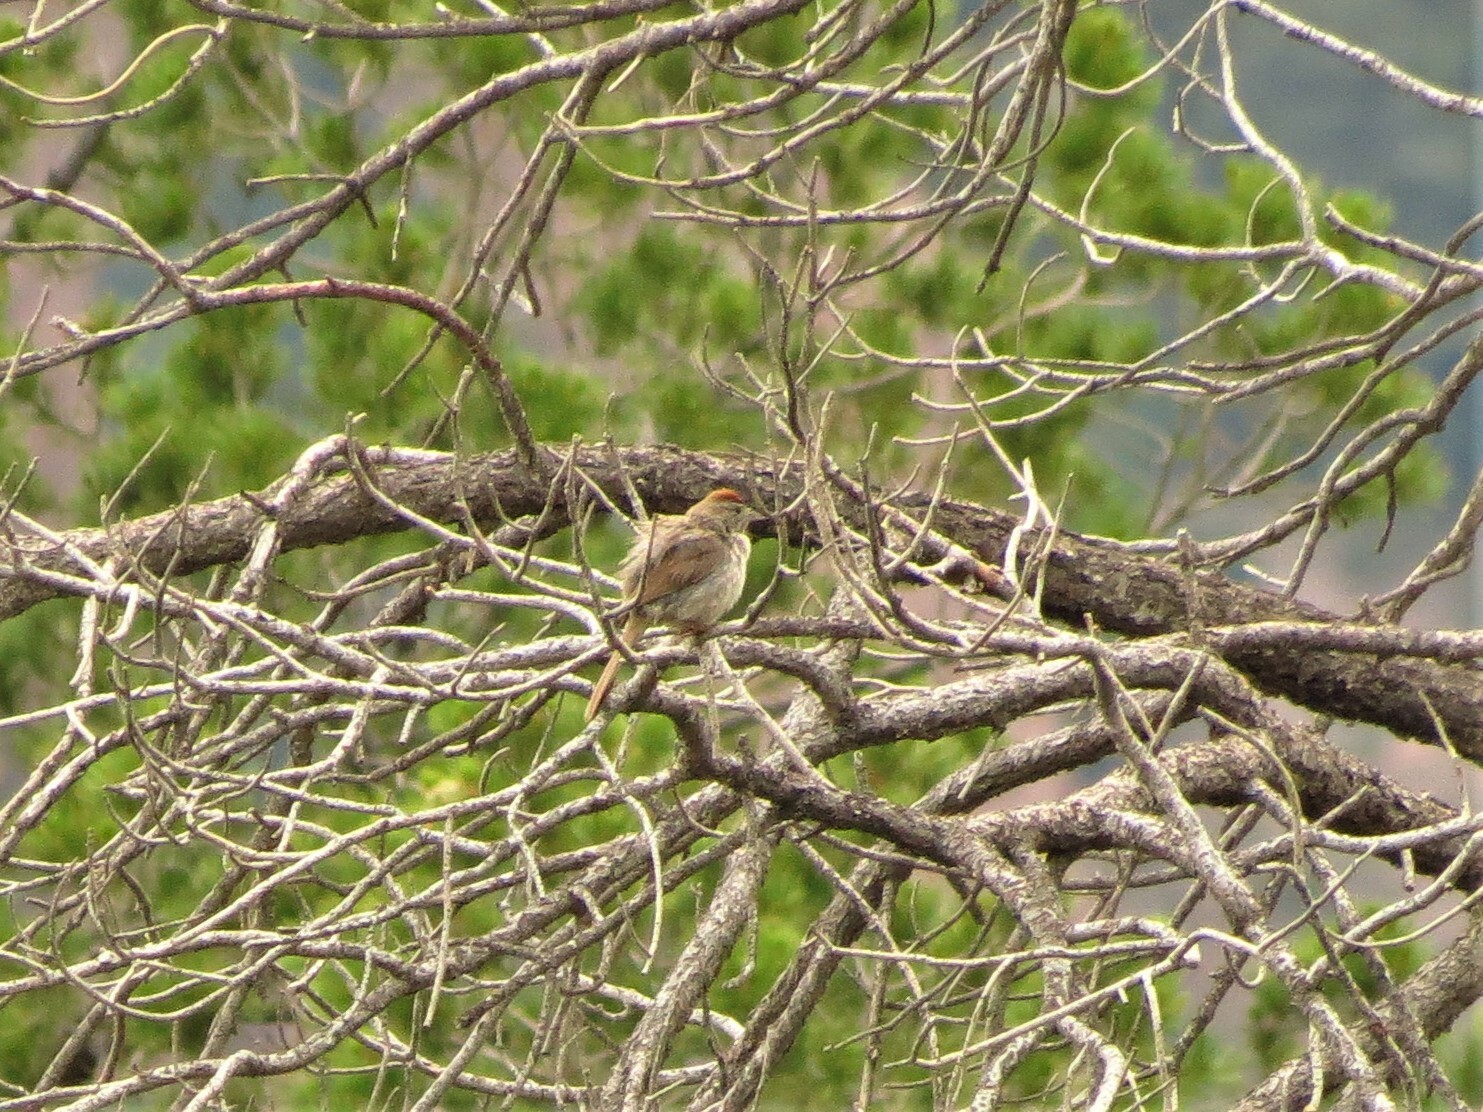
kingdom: Animalia
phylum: Chordata
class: Aves
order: Passeriformes
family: Passerellidae
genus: Melozone
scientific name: Melozone fusca
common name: Canyon towhee
